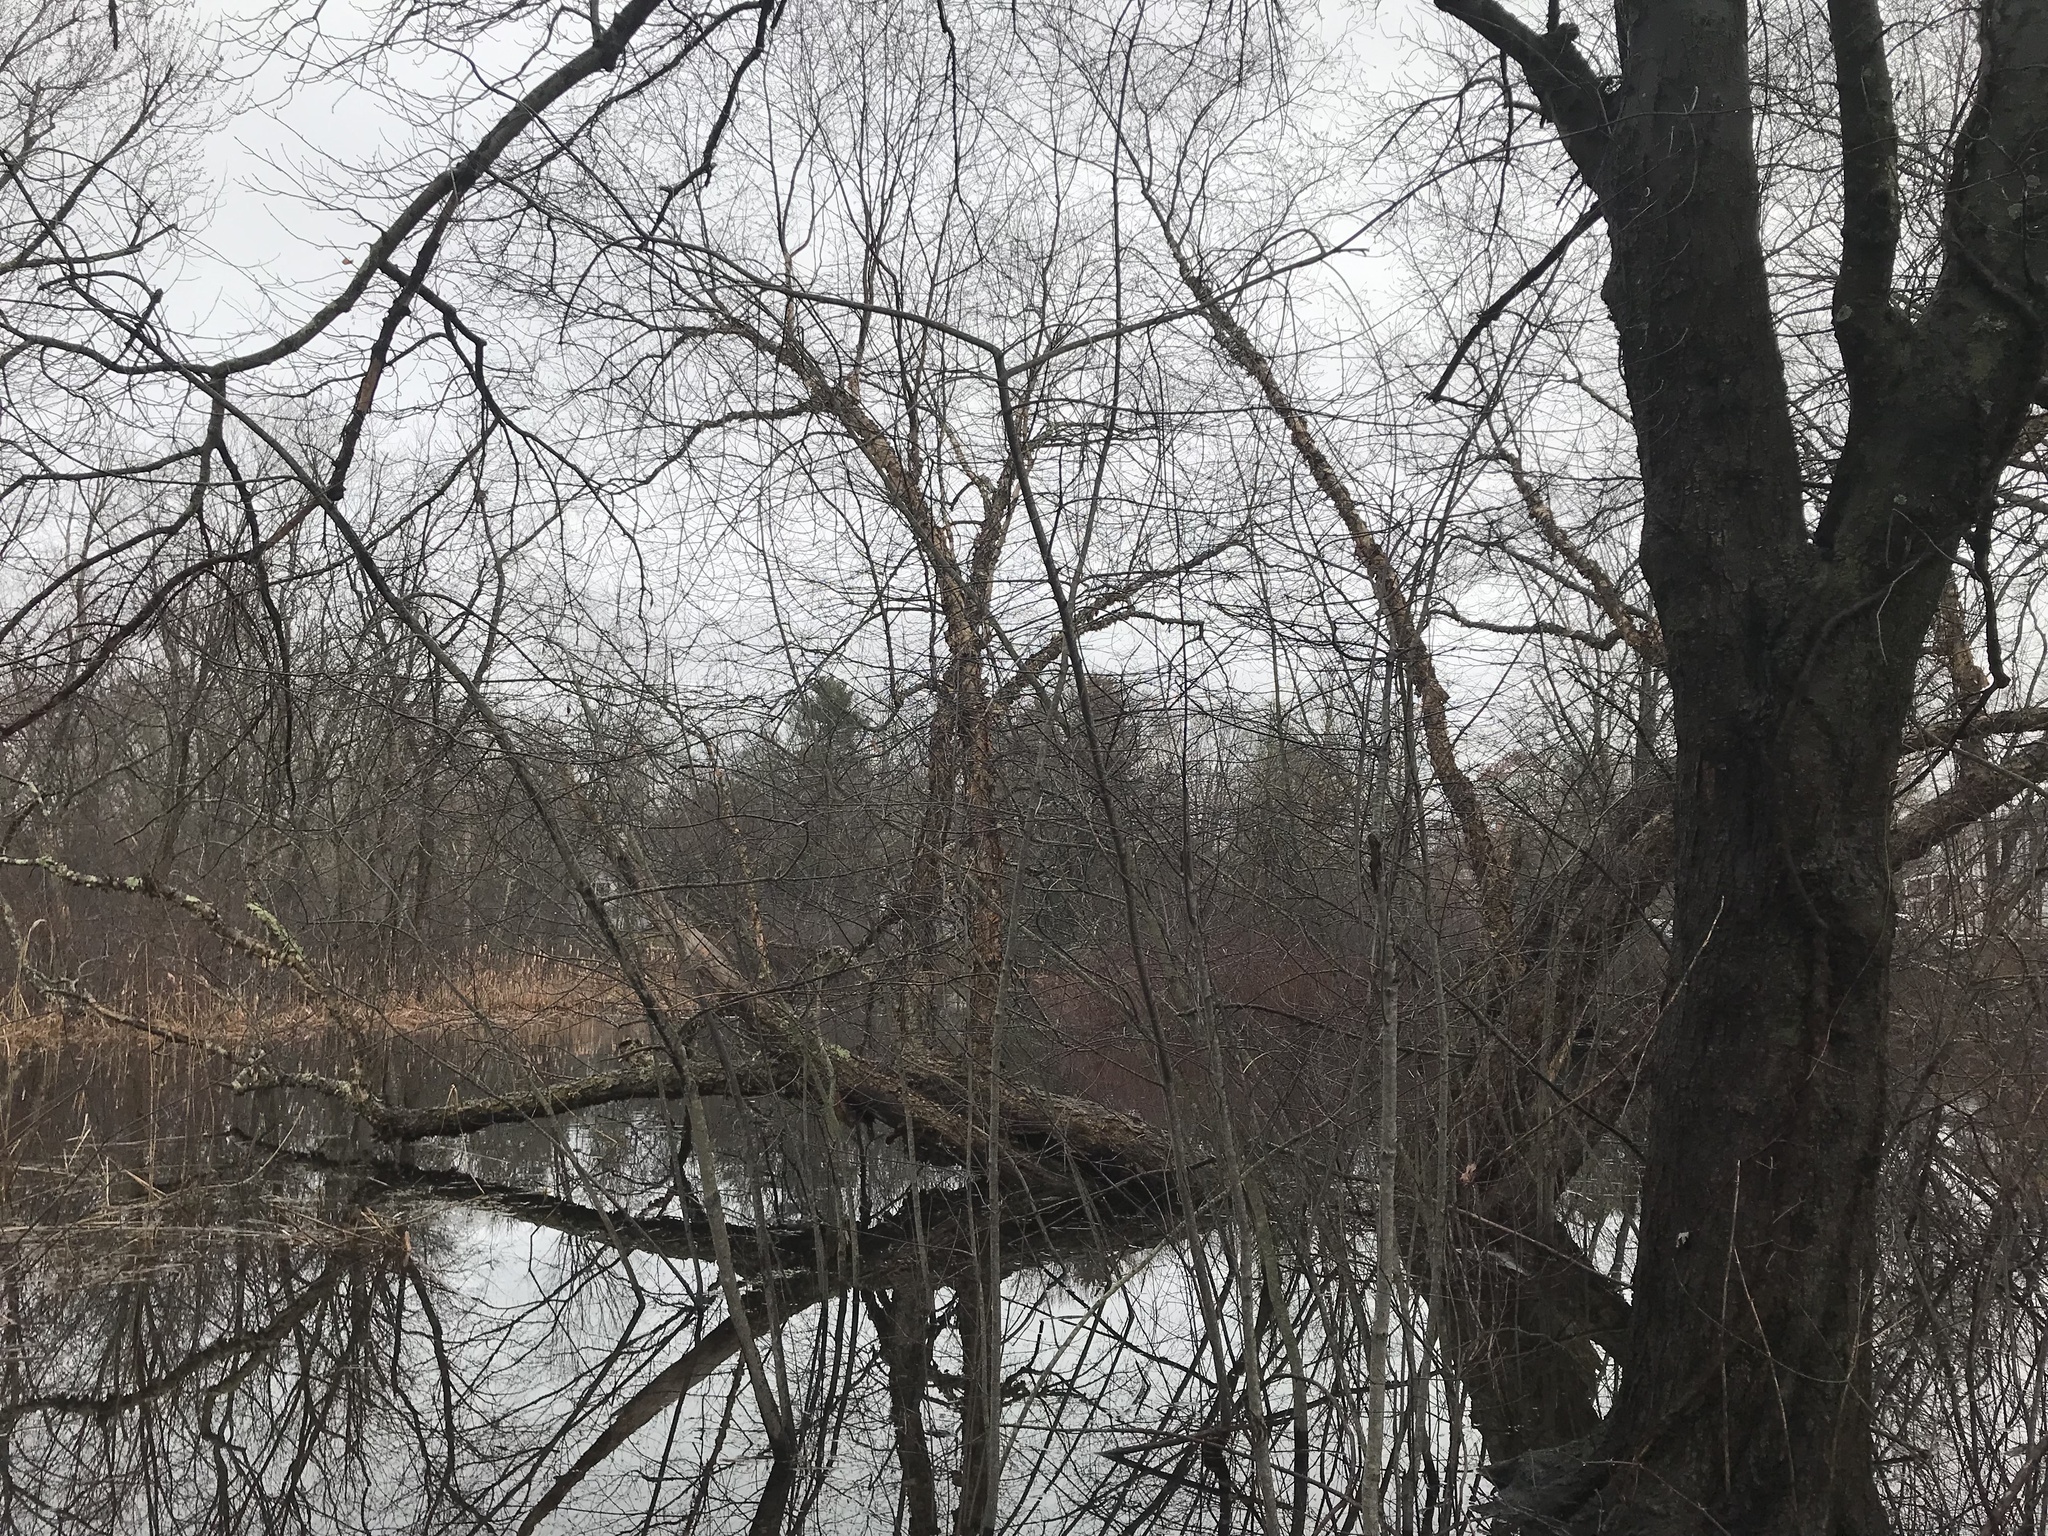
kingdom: Plantae
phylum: Tracheophyta
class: Magnoliopsida
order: Fagales
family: Betulaceae
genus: Betula
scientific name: Betula nigra
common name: Black birch
